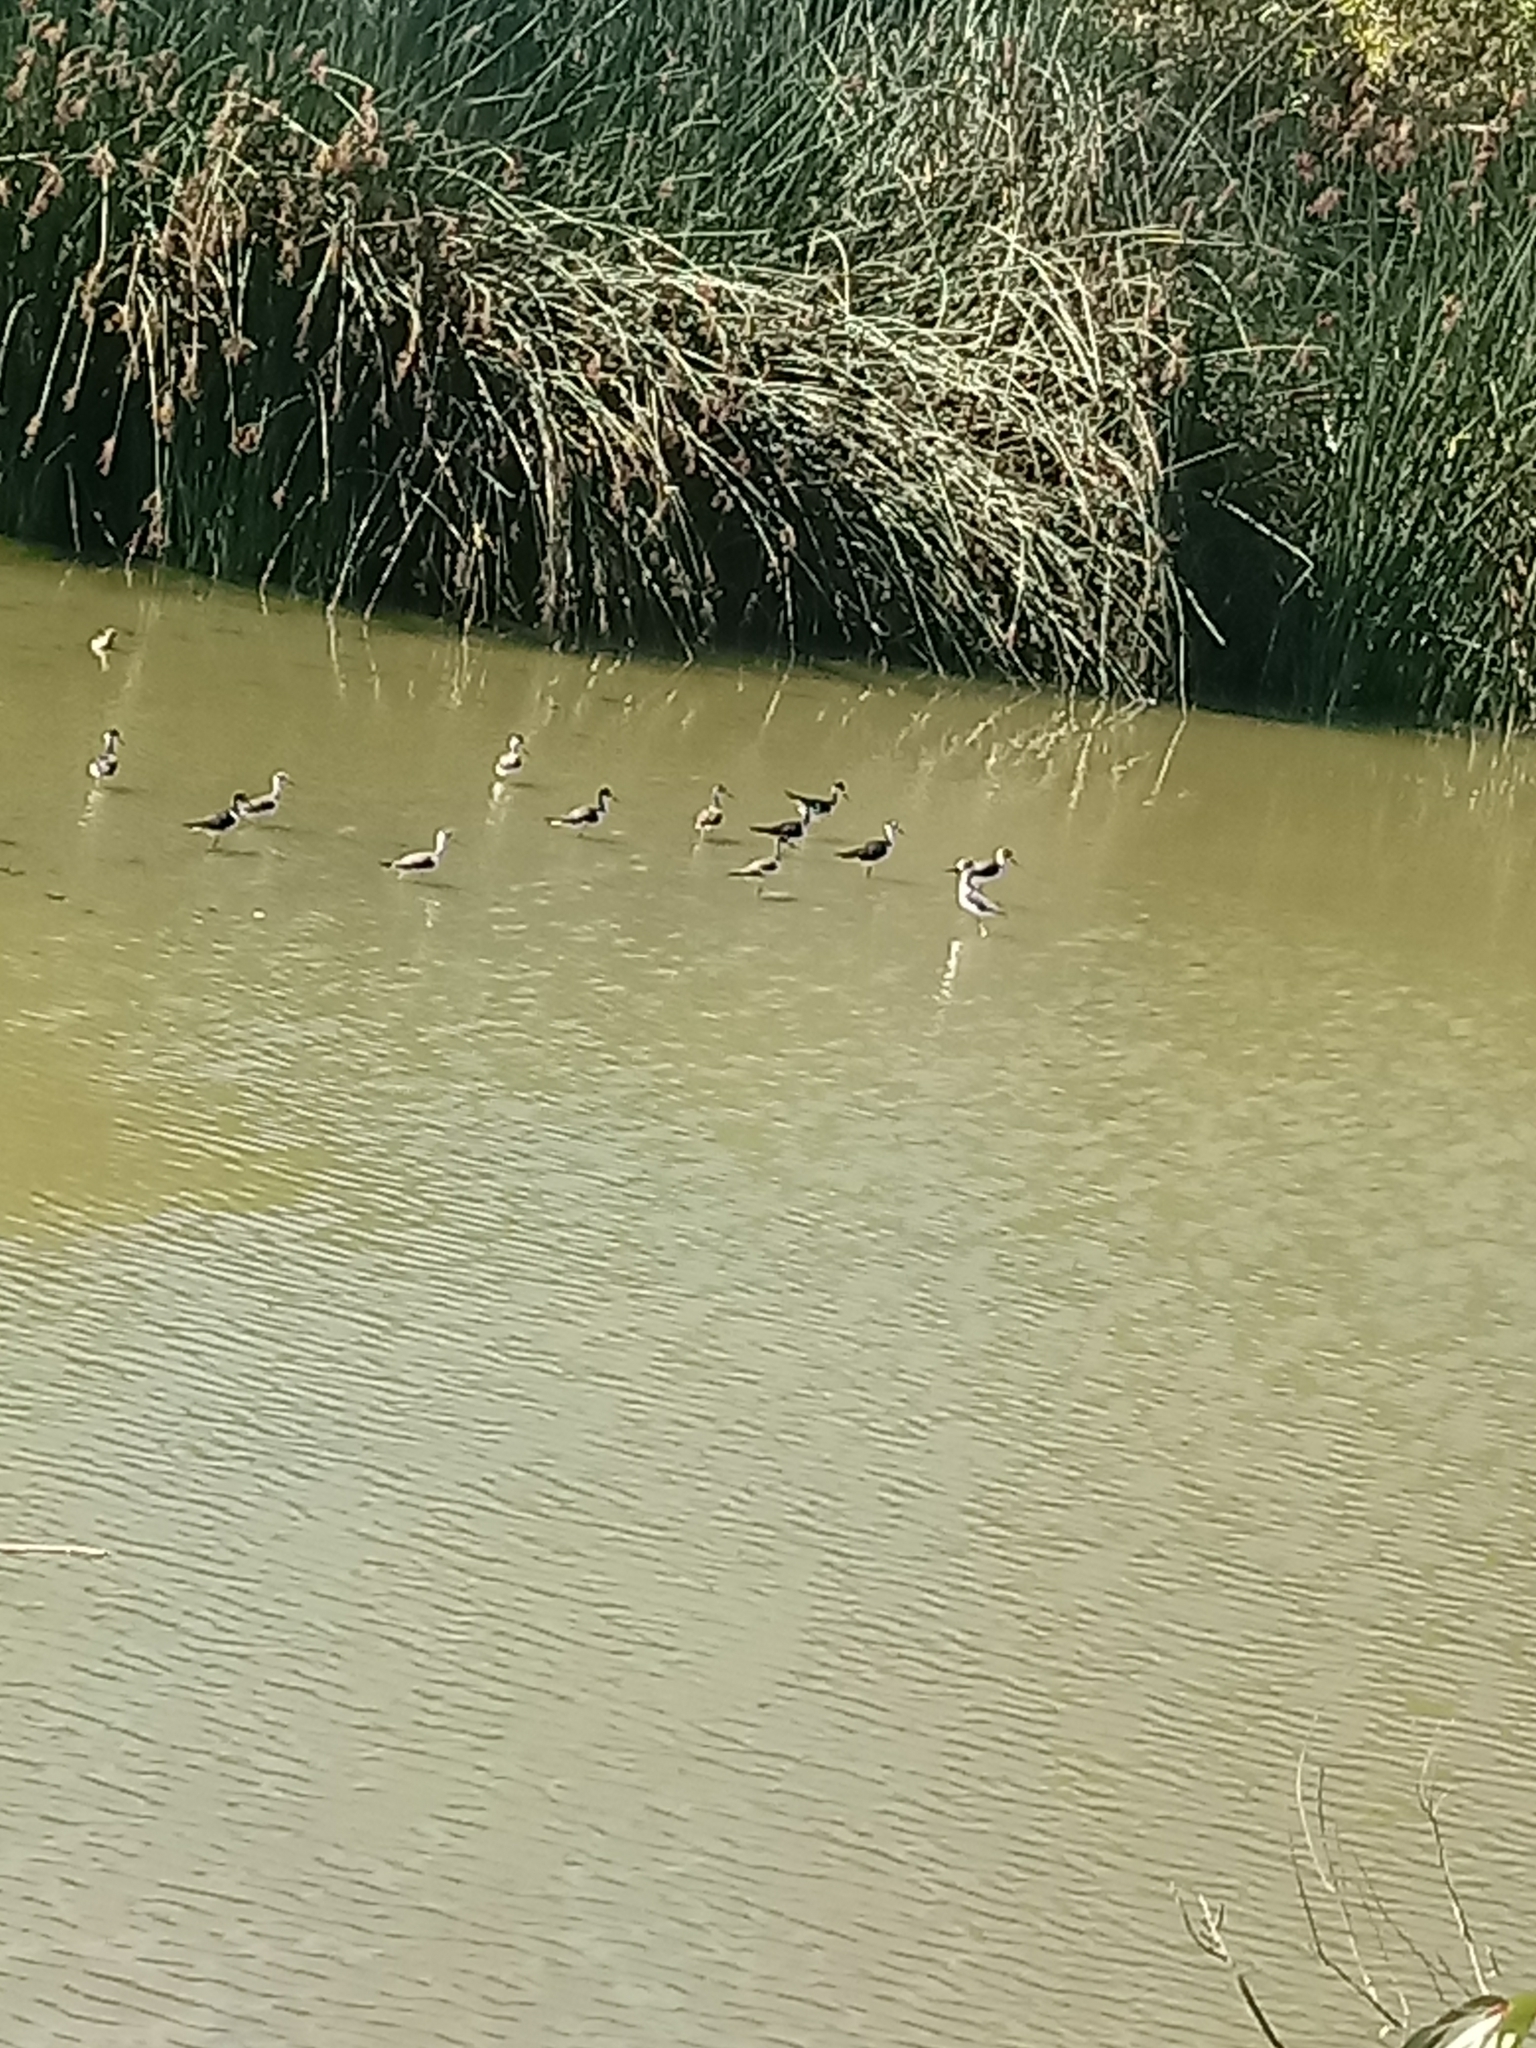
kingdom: Animalia
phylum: Chordata
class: Aves
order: Charadriiformes
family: Recurvirostridae
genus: Himantopus
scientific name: Himantopus mexicanus
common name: Black-necked stilt
